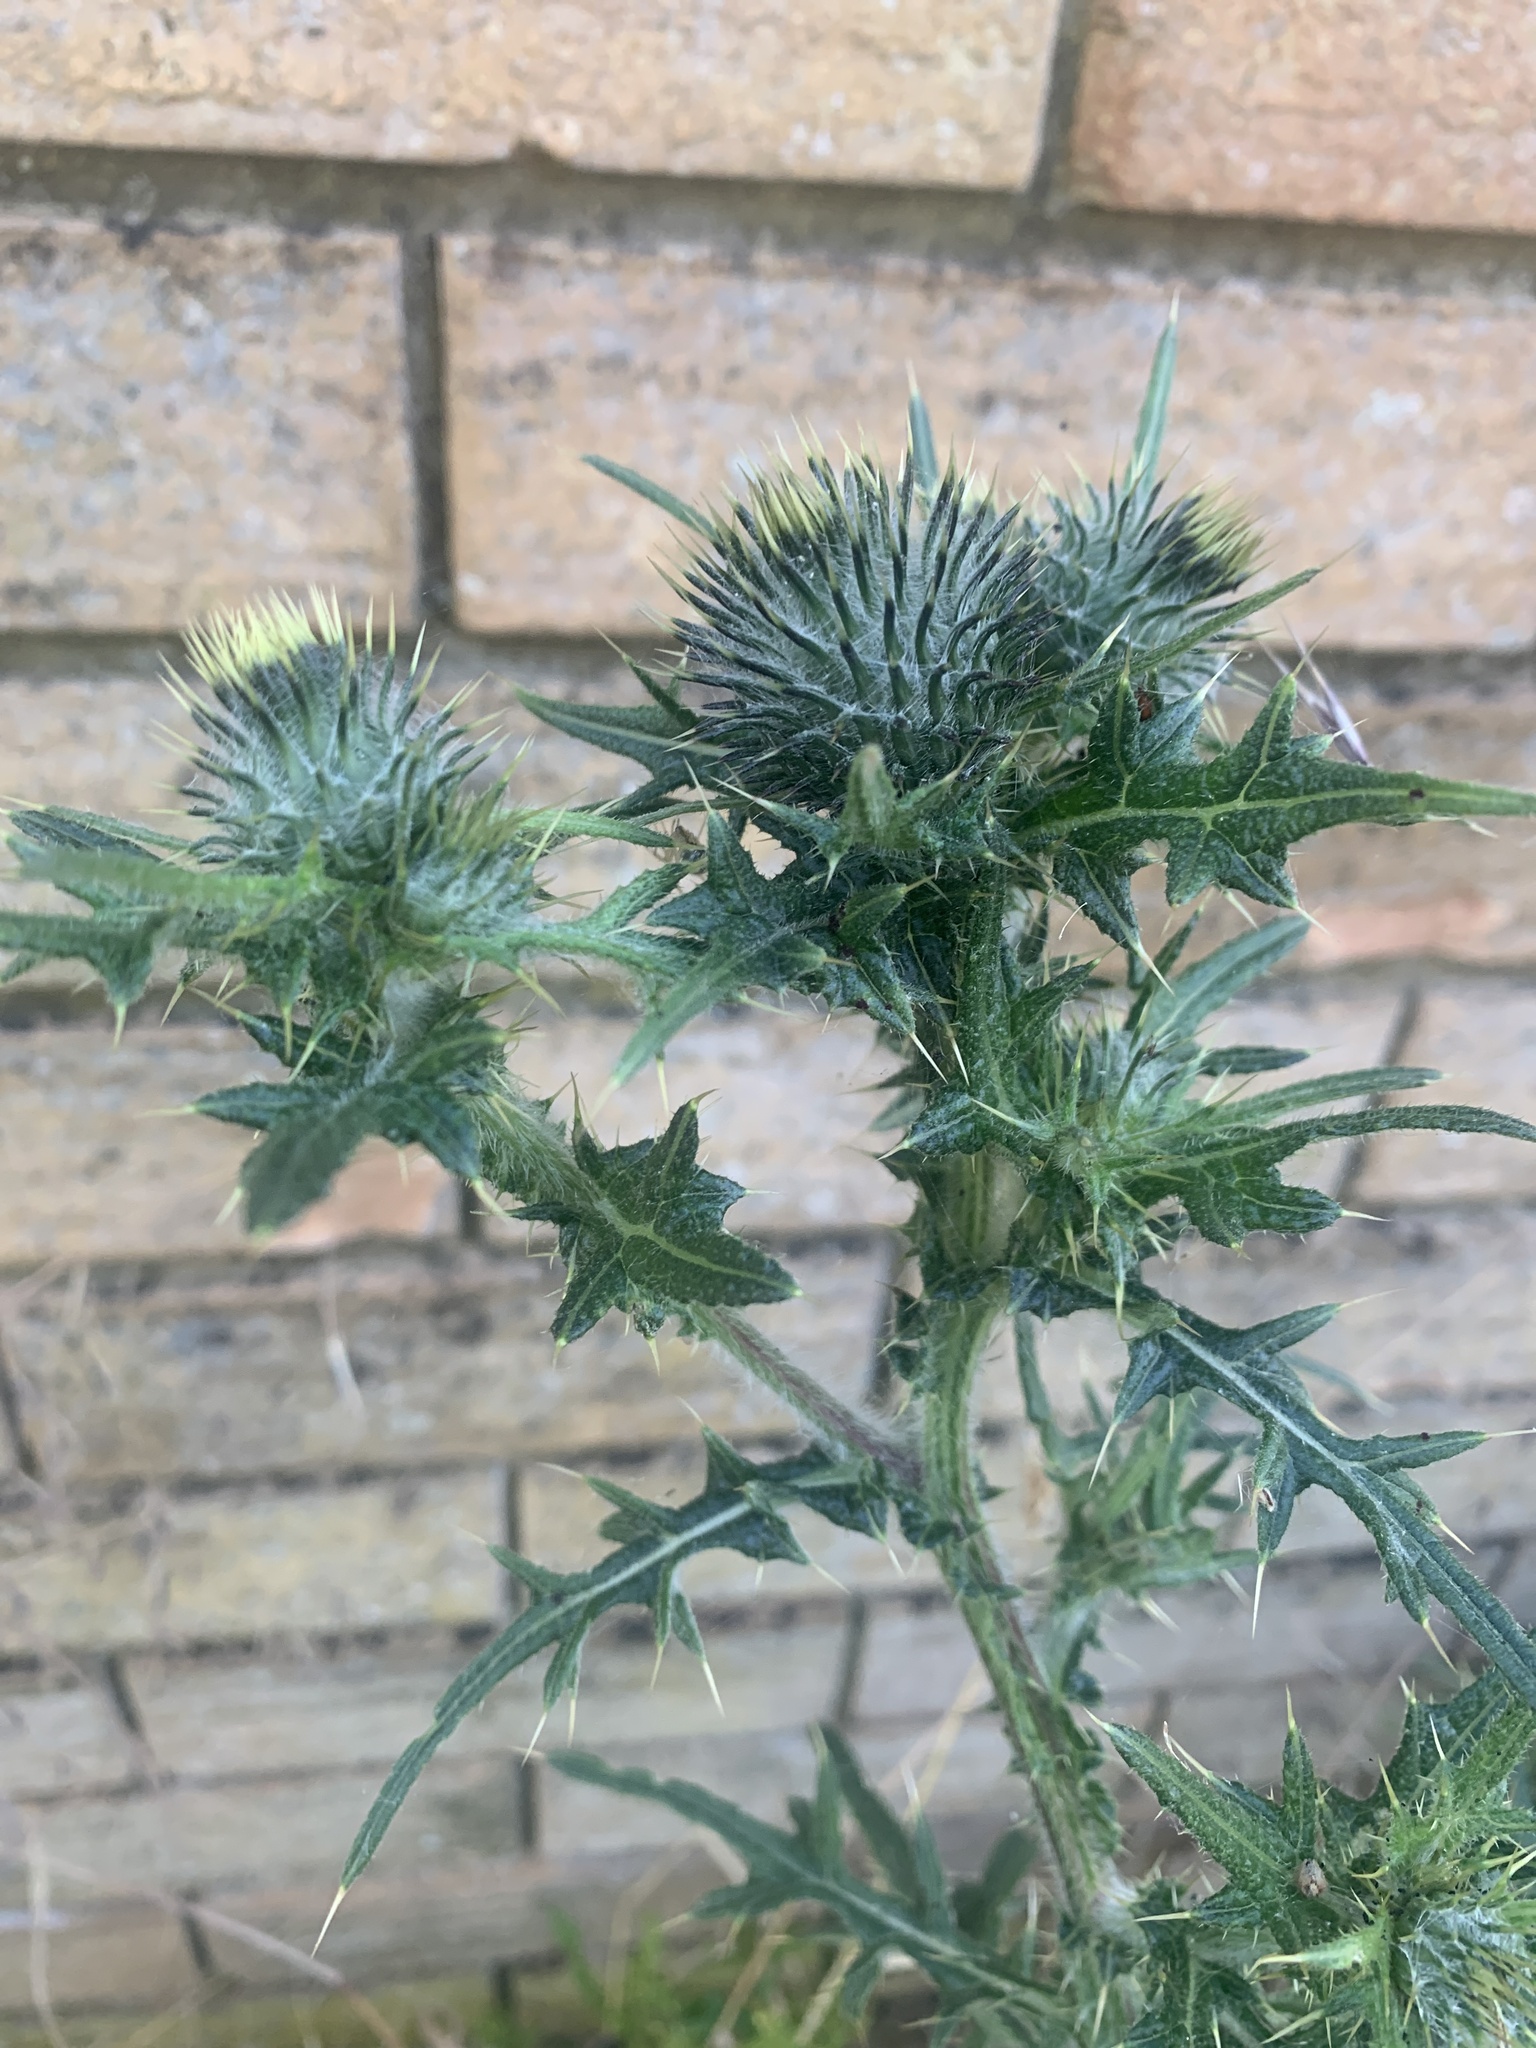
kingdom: Plantae
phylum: Tracheophyta
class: Magnoliopsida
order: Asterales
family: Asteraceae
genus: Cirsium
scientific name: Cirsium vulgare
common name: Bull thistle
